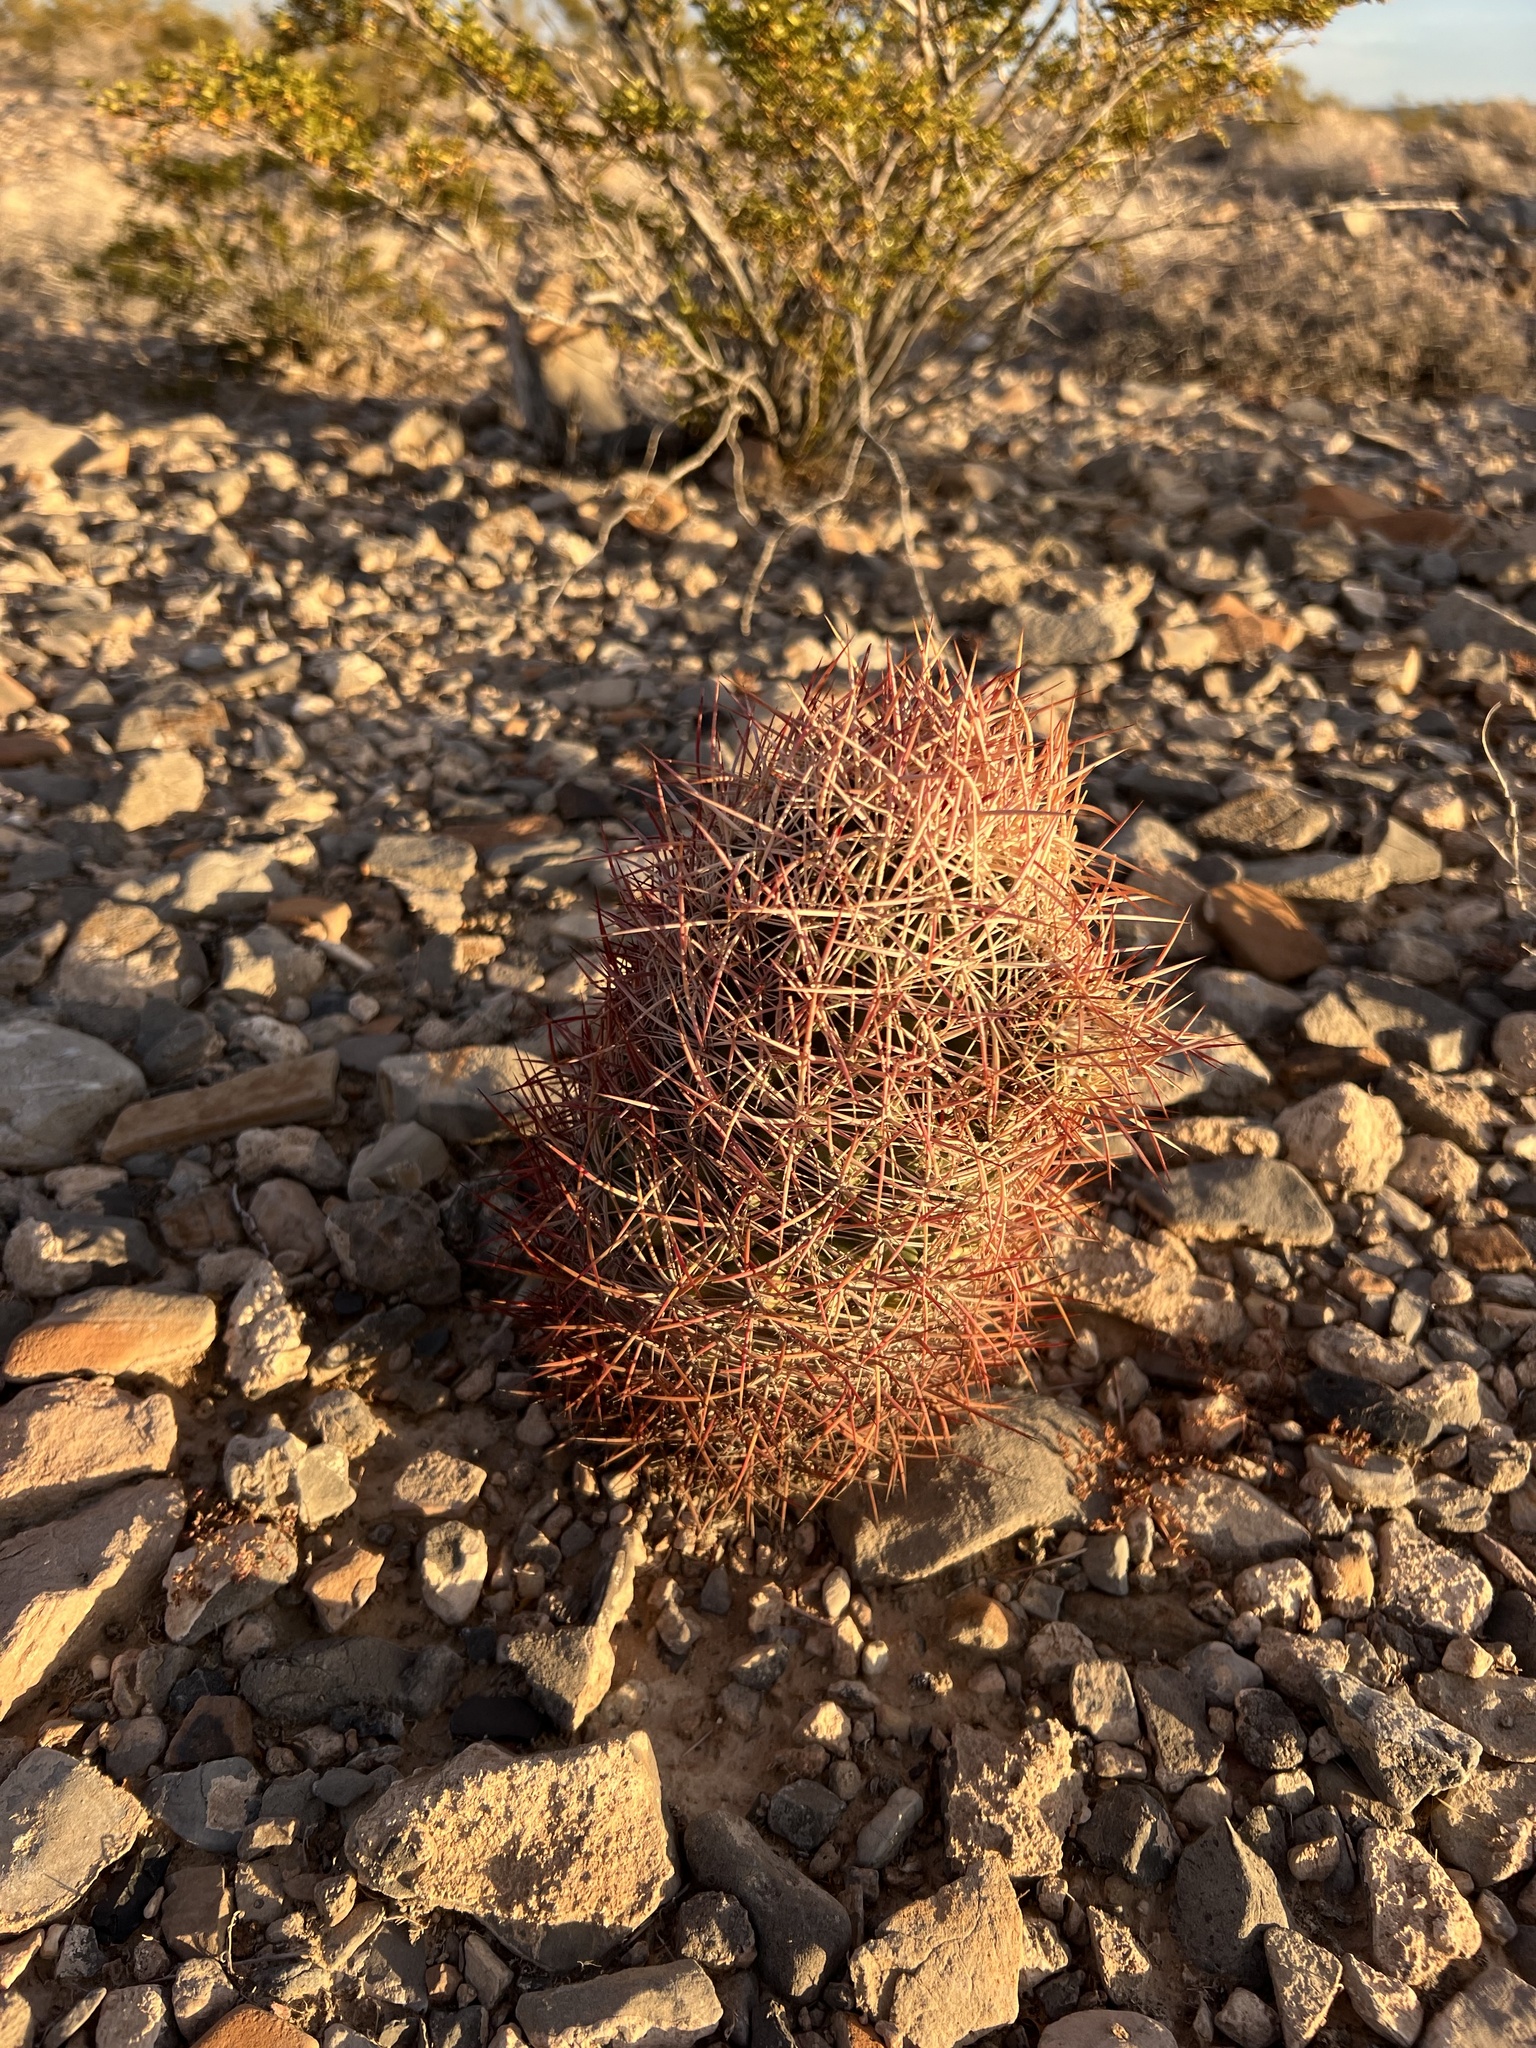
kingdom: Plantae
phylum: Tracheophyta
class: Magnoliopsida
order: Caryophyllales
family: Cactaceae
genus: Sclerocactus
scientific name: Sclerocactus johnsonii
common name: Eight-spine fishhook cactus
